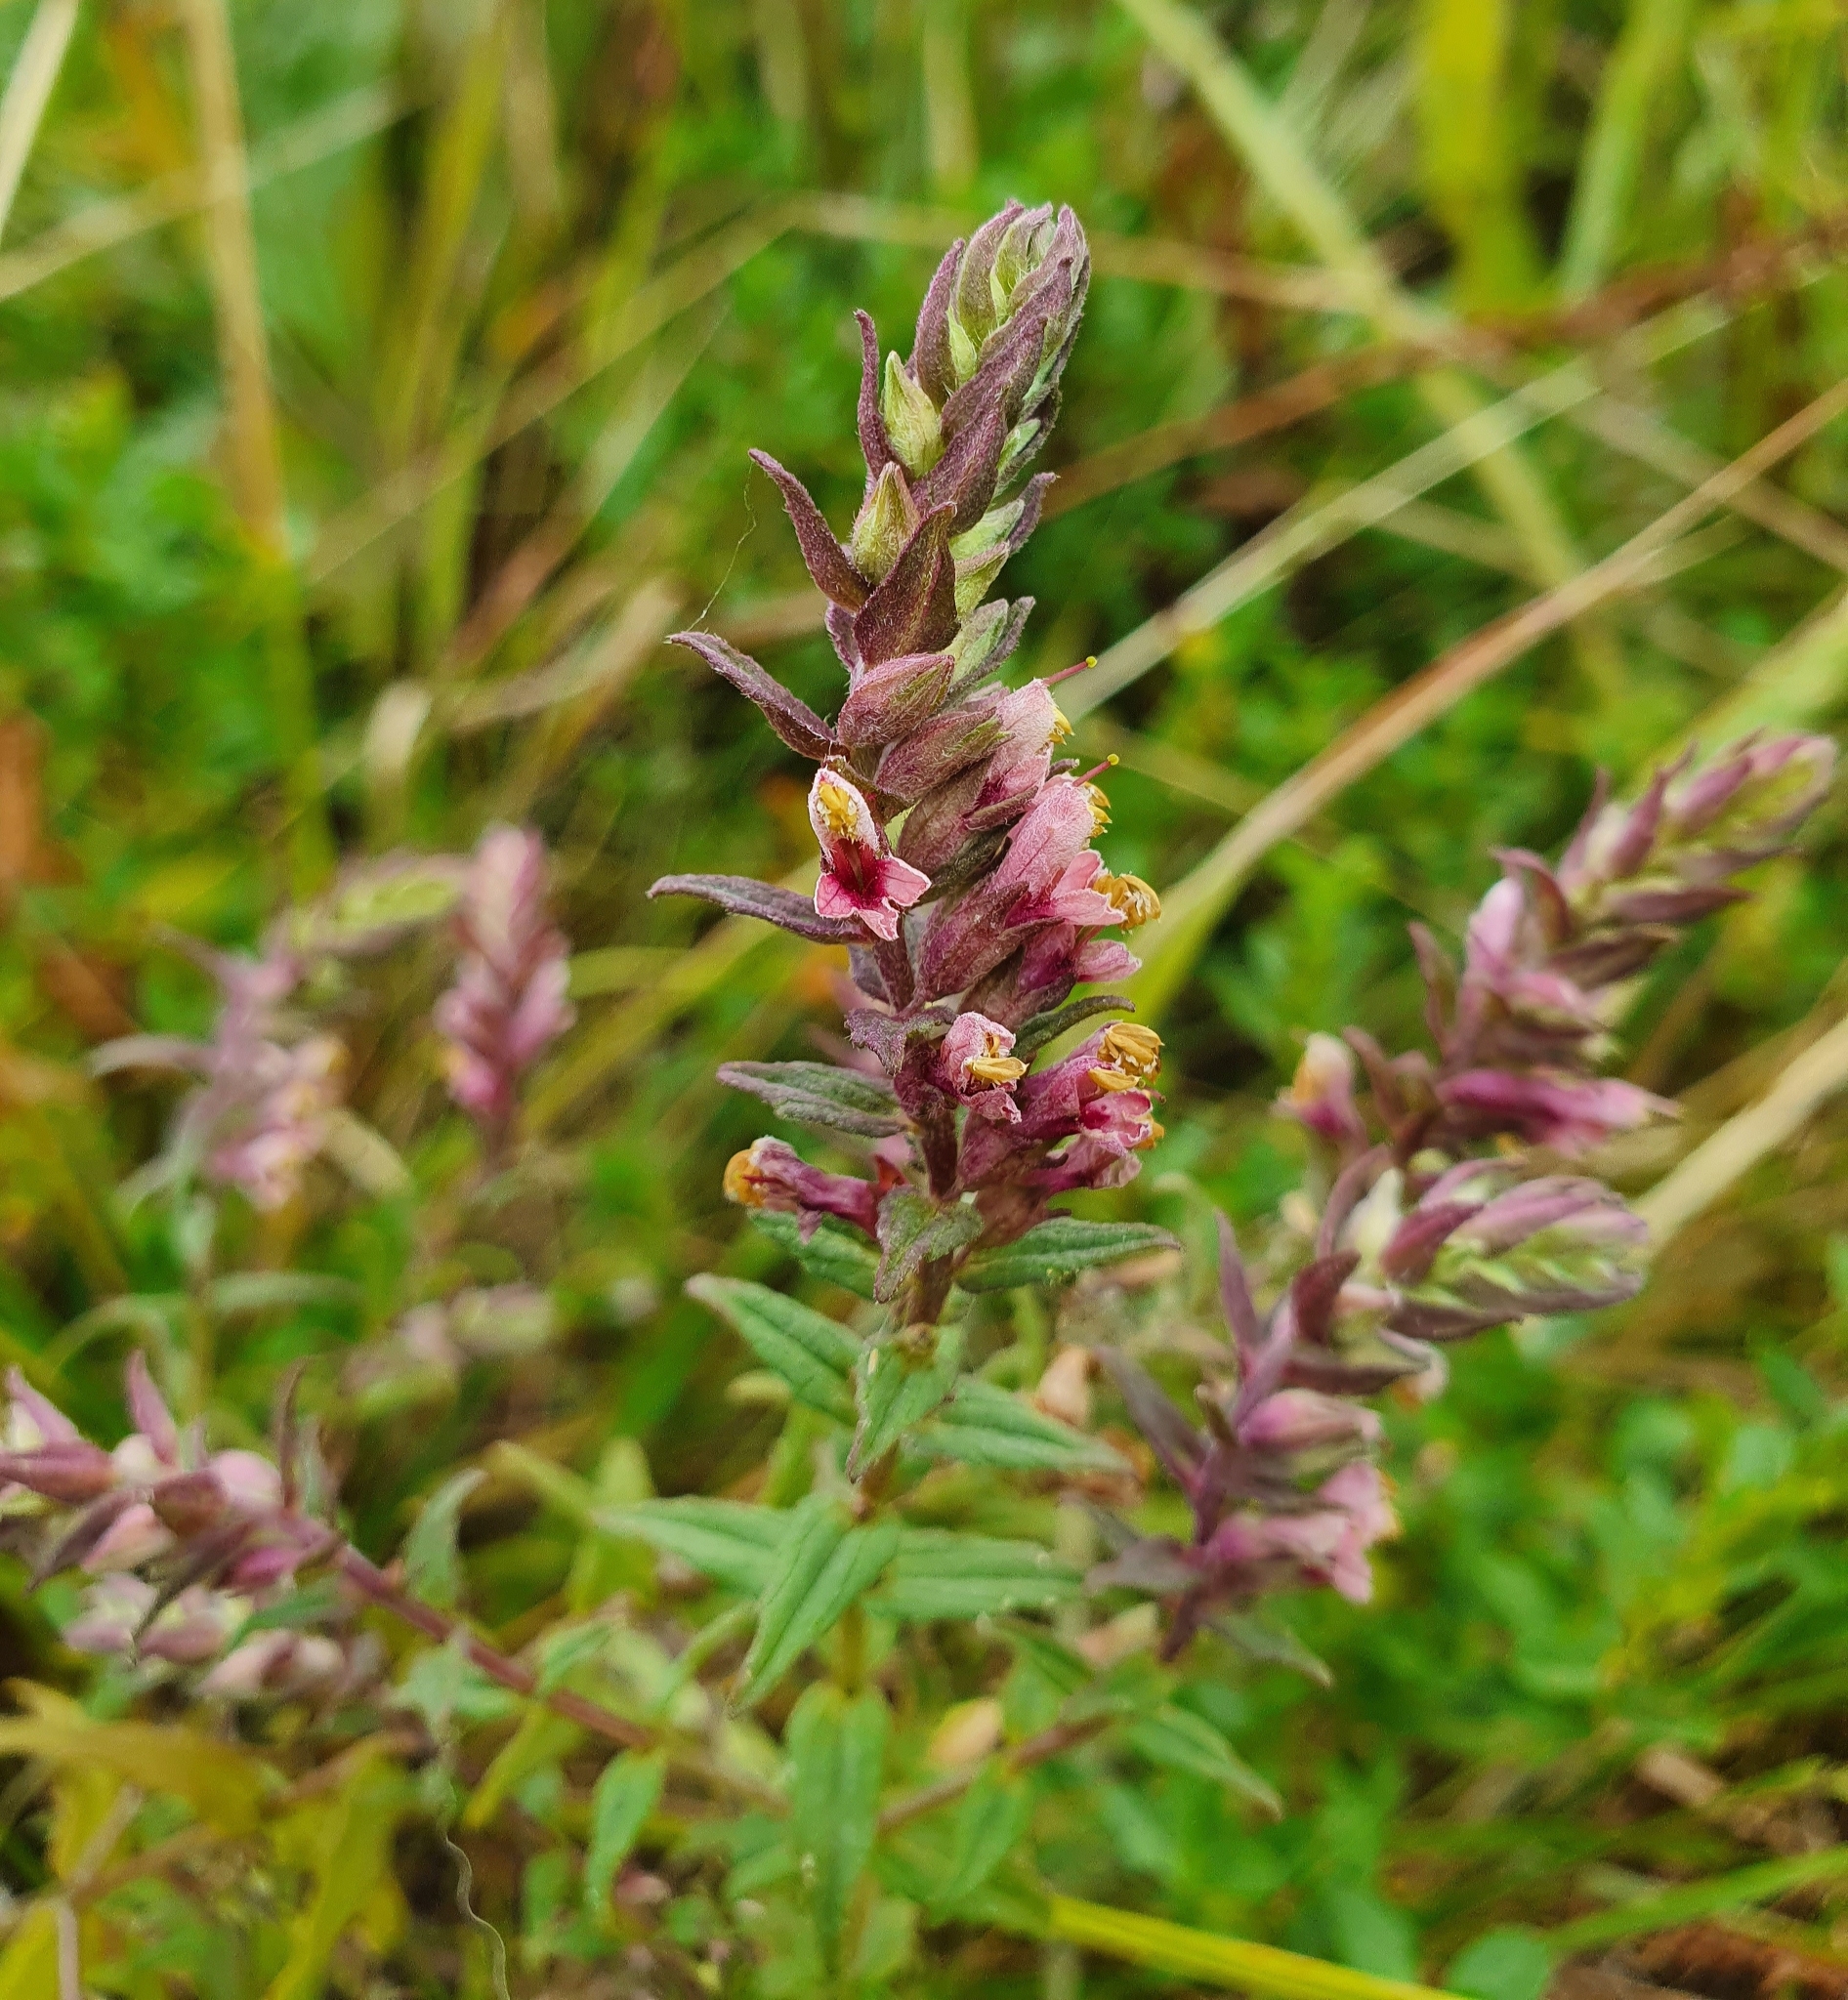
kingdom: Plantae
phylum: Tracheophyta
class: Magnoliopsida
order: Lamiales
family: Orobanchaceae
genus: Odontites
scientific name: Odontites vulgaris
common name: Broomrape
